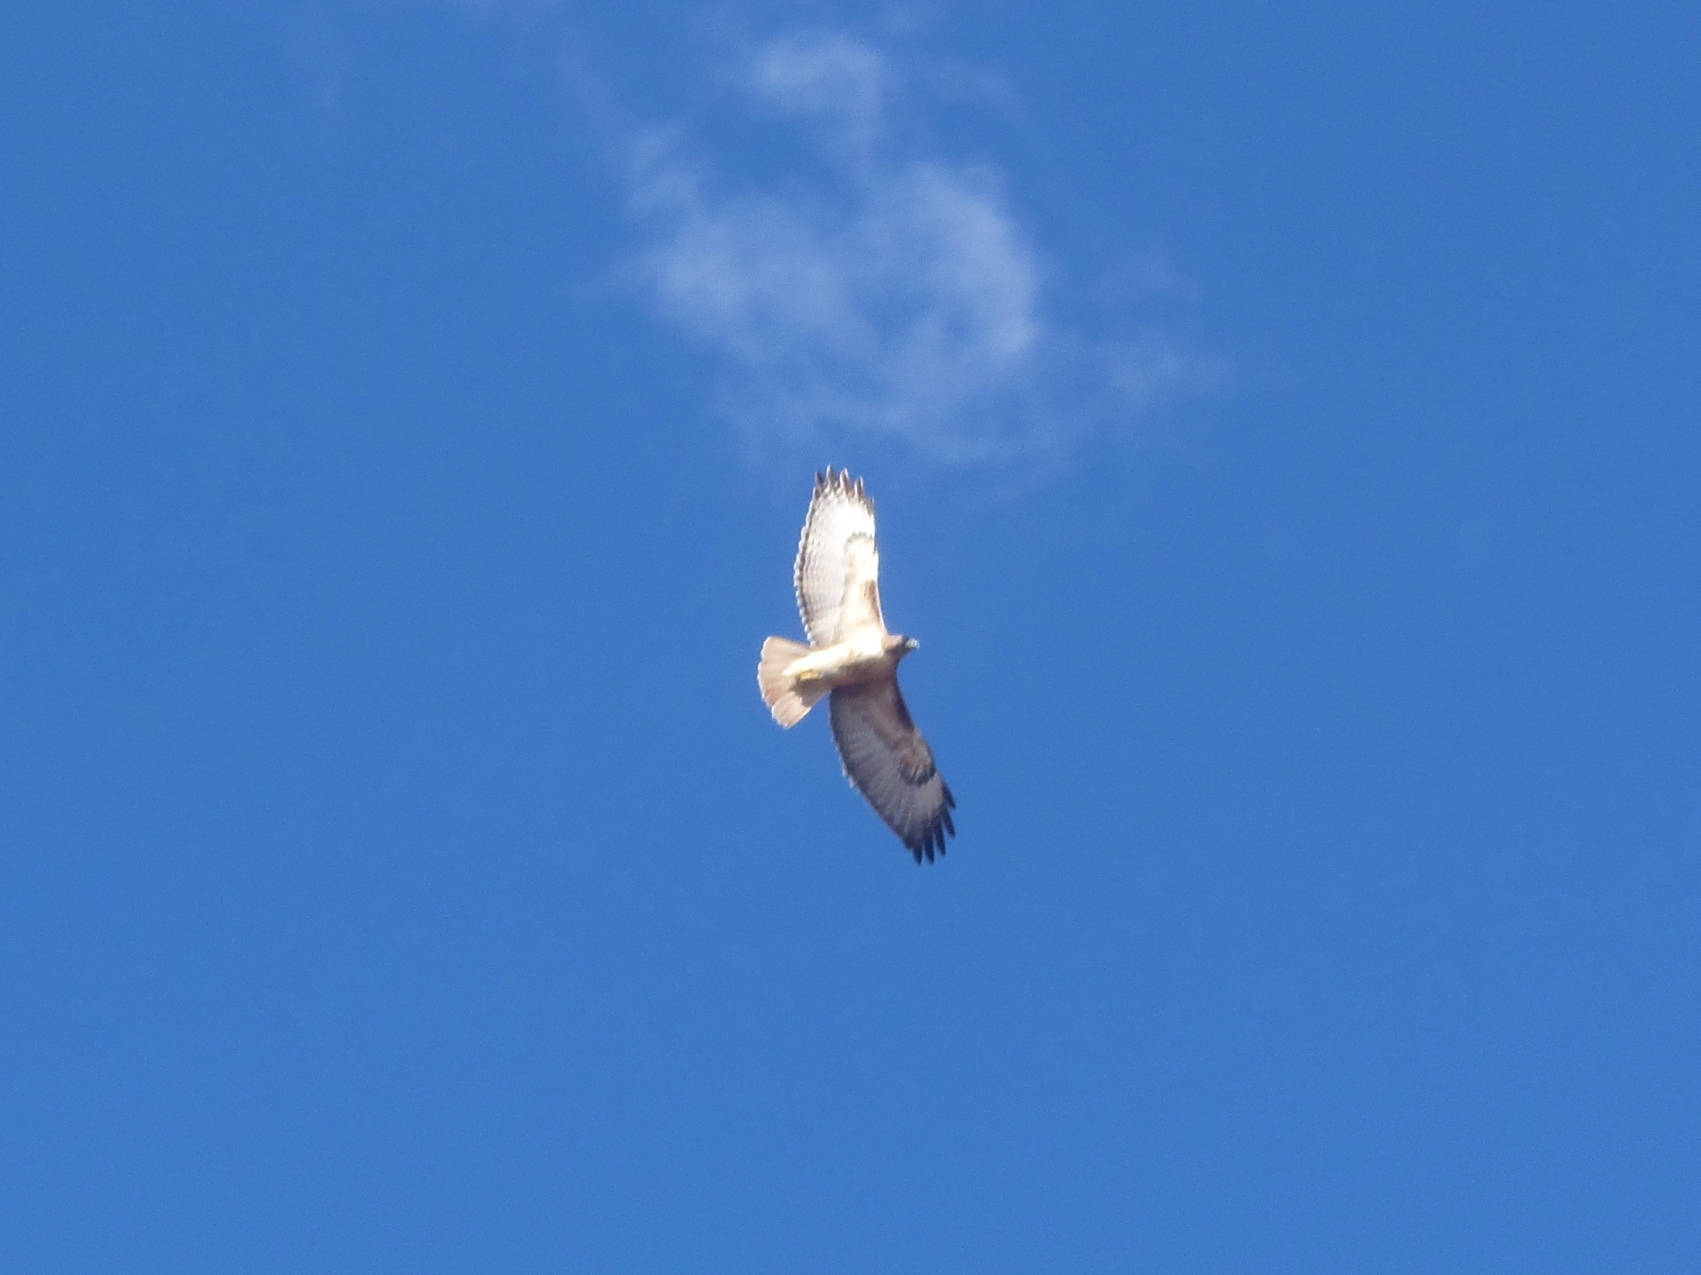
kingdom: Animalia
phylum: Chordata
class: Aves
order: Accipitriformes
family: Accipitridae
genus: Buteo
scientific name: Buteo jamaicensis
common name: Red-tailed hawk
